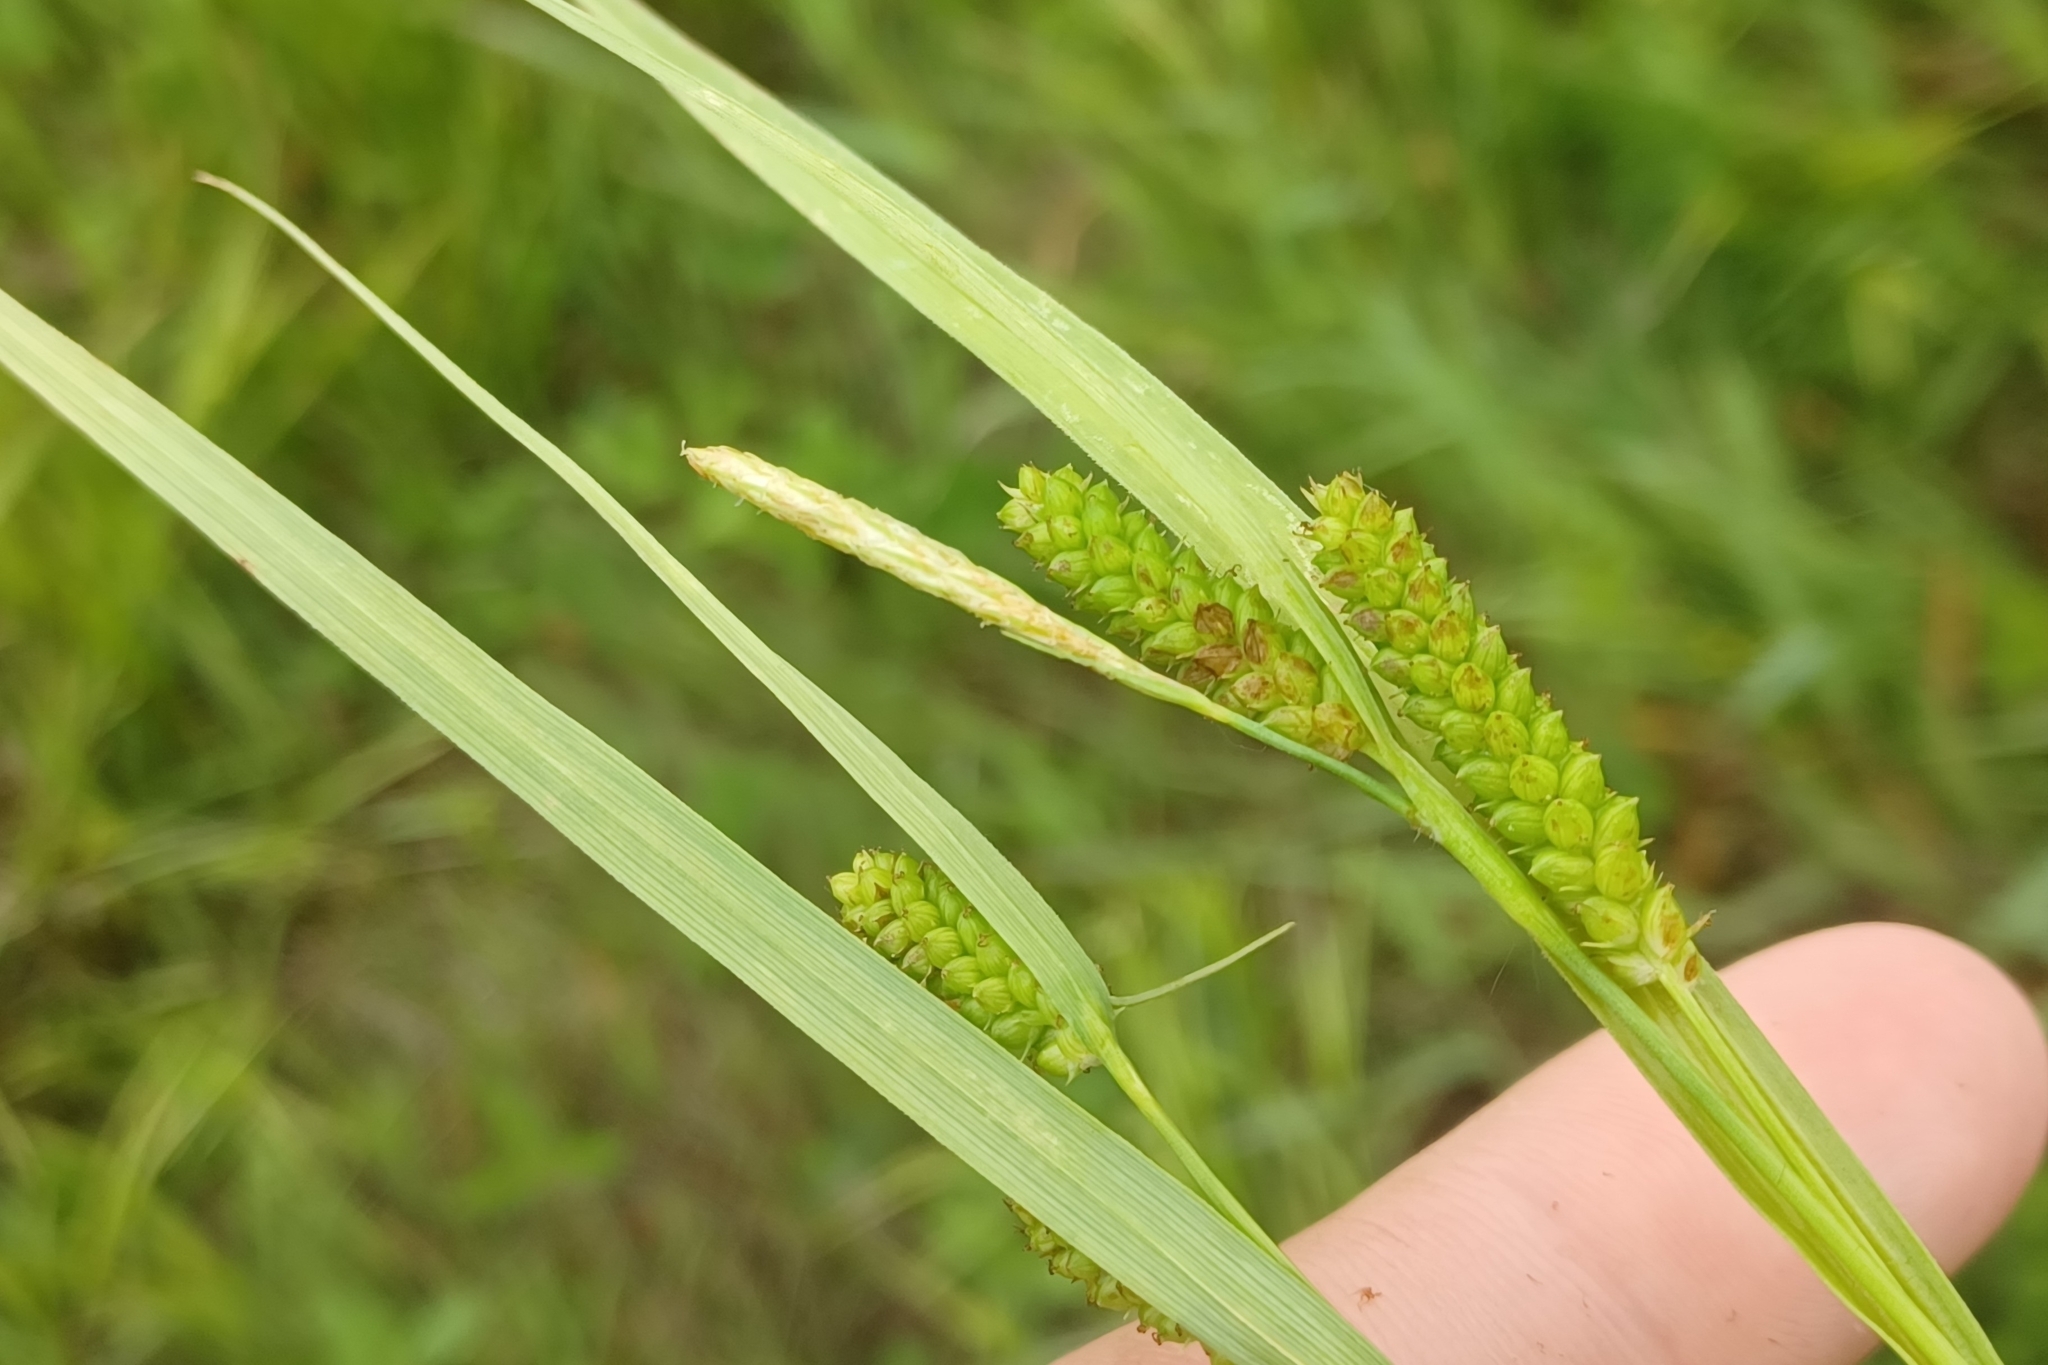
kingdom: Plantae
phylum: Tracheophyta
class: Liliopsida
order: Poales
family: Cyperaceae
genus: Carex
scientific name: Carex granularis
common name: Granular sedge
